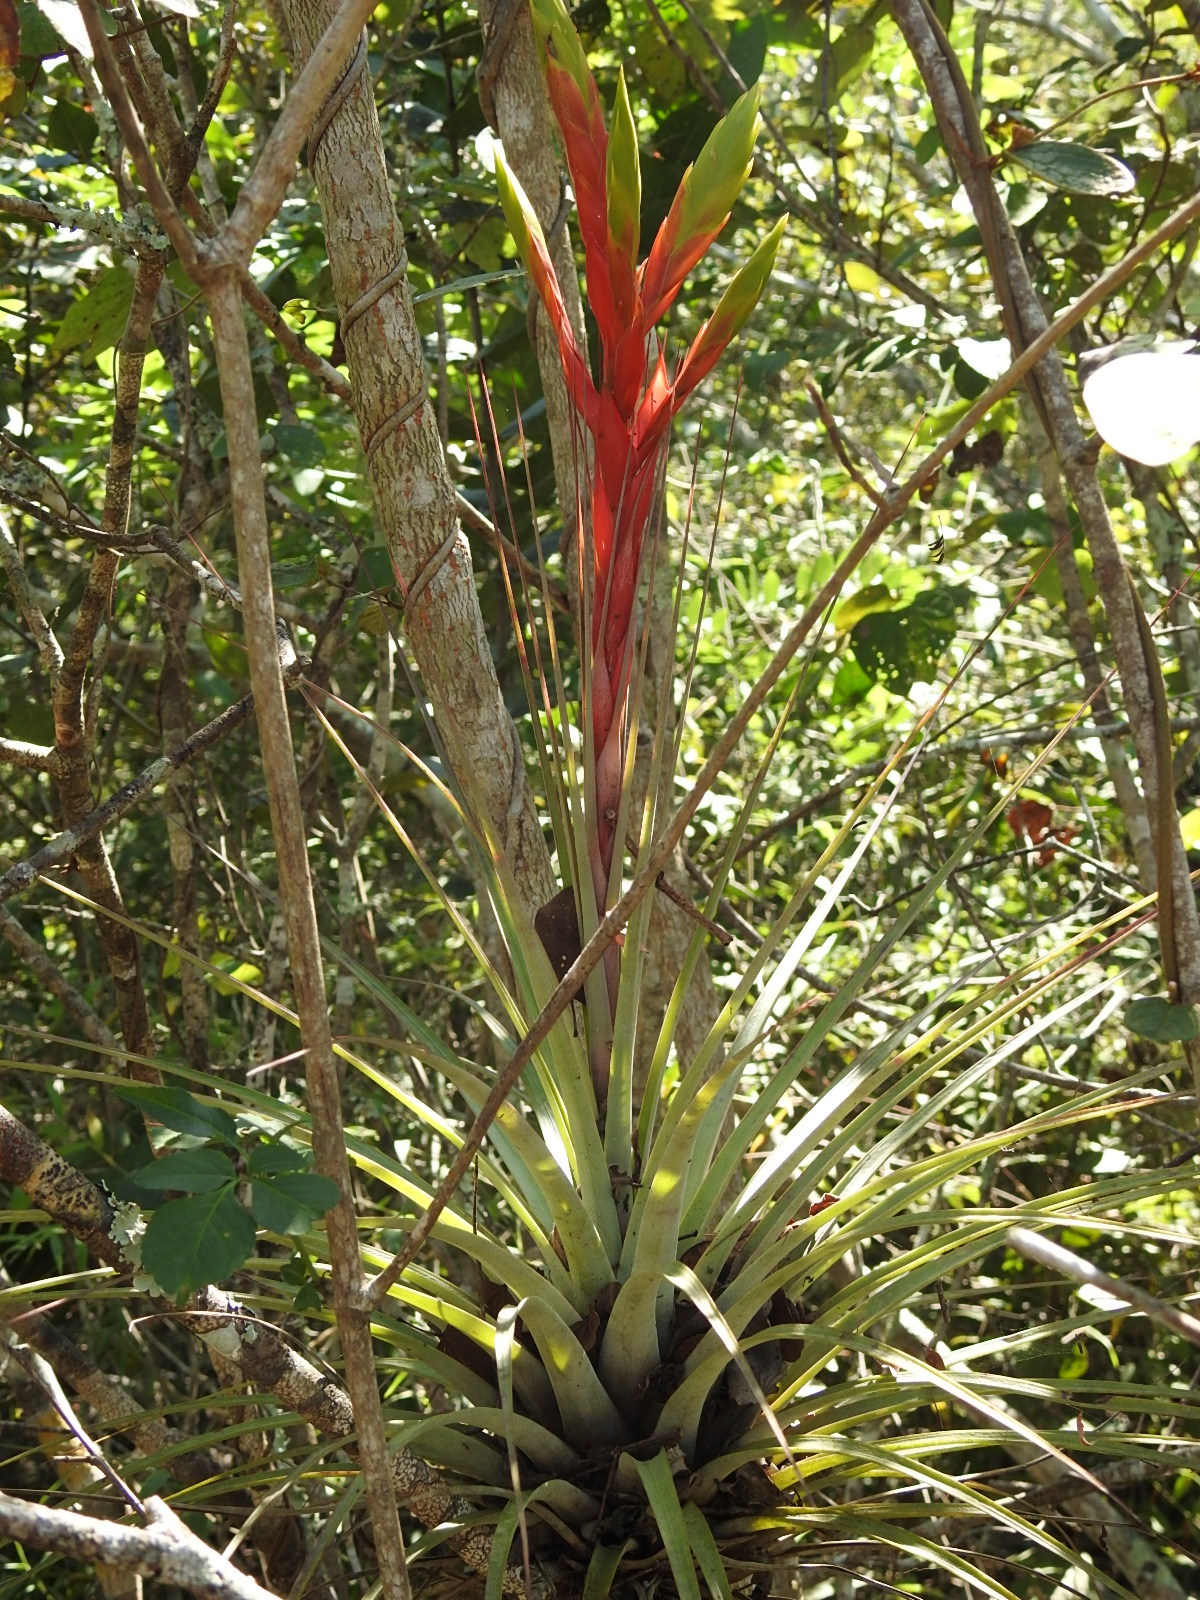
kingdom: Plantae
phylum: Tracheophyta
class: Liliopsida
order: Poales
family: Bromeliaceae
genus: Tillandsia
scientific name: Tillandsia fasciculata
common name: Giant airplant
